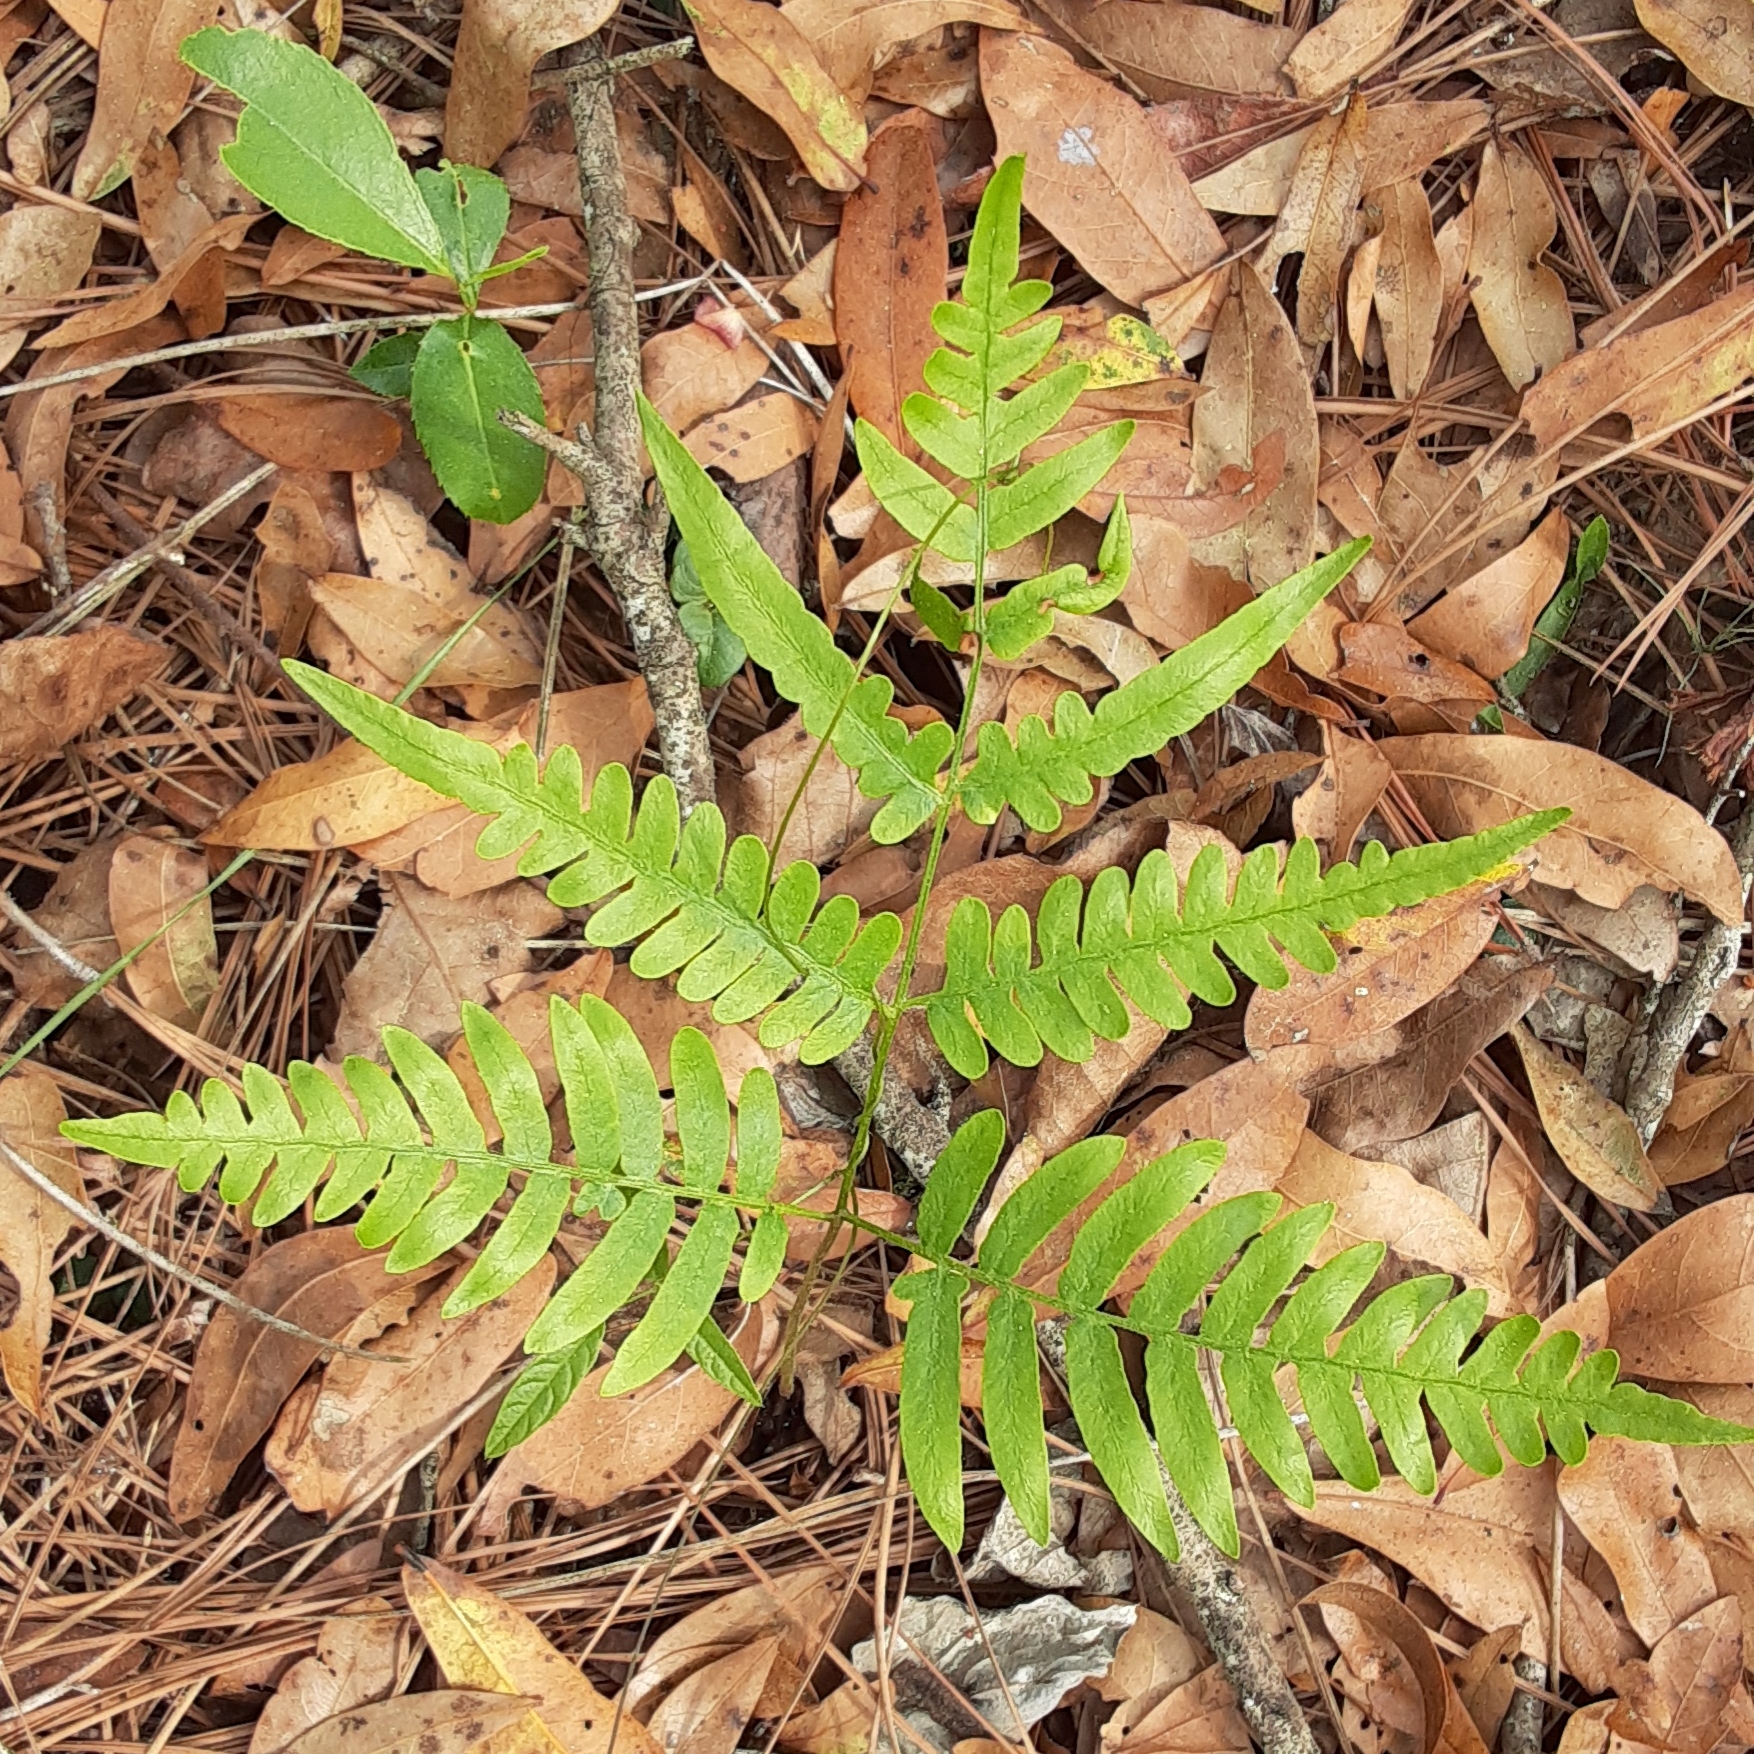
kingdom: Plantae
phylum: Tracheophyta
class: Polypodiopsida
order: Polypodiales
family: Dennstaedtiaceae
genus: Pteridium
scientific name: Pteridium aquilinum
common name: Bracken
